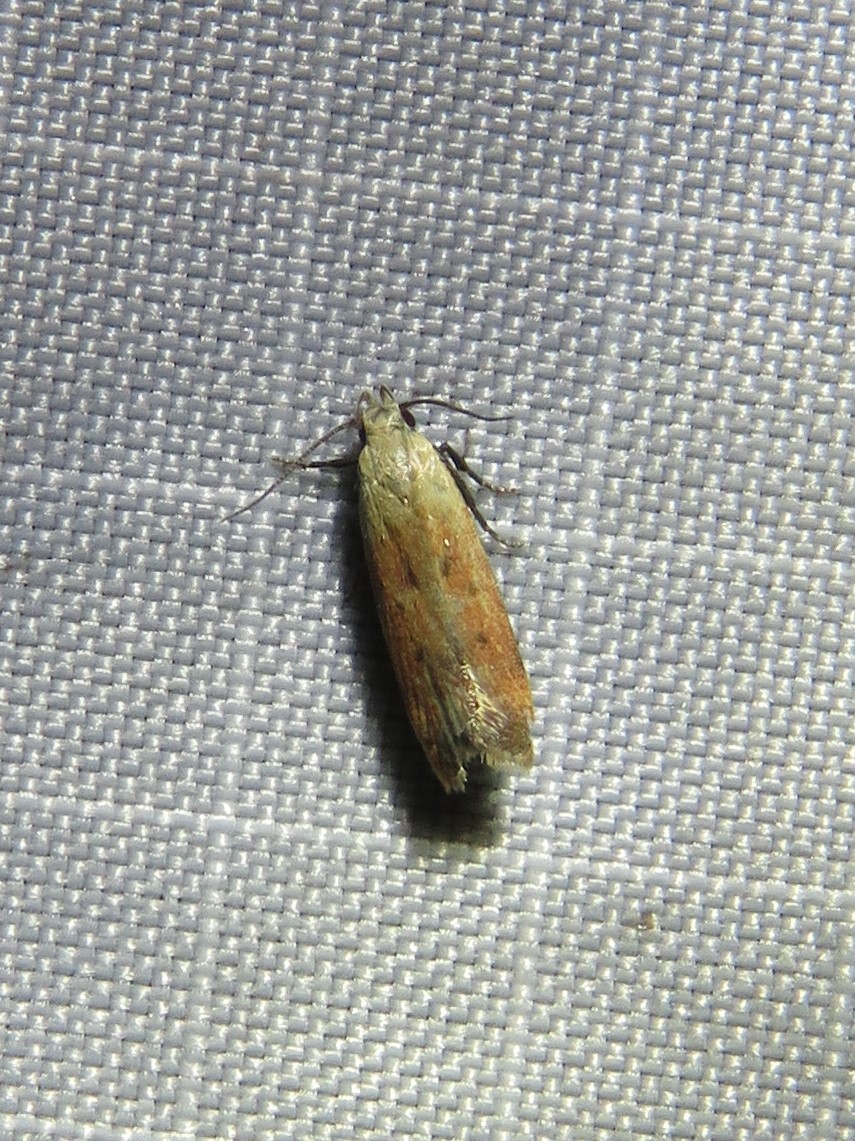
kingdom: Animalia
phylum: Arthropoda
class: Insecta
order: Lepidoptera
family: Gelechiidae
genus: Anacampsis
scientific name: Anacampsis fullonella
